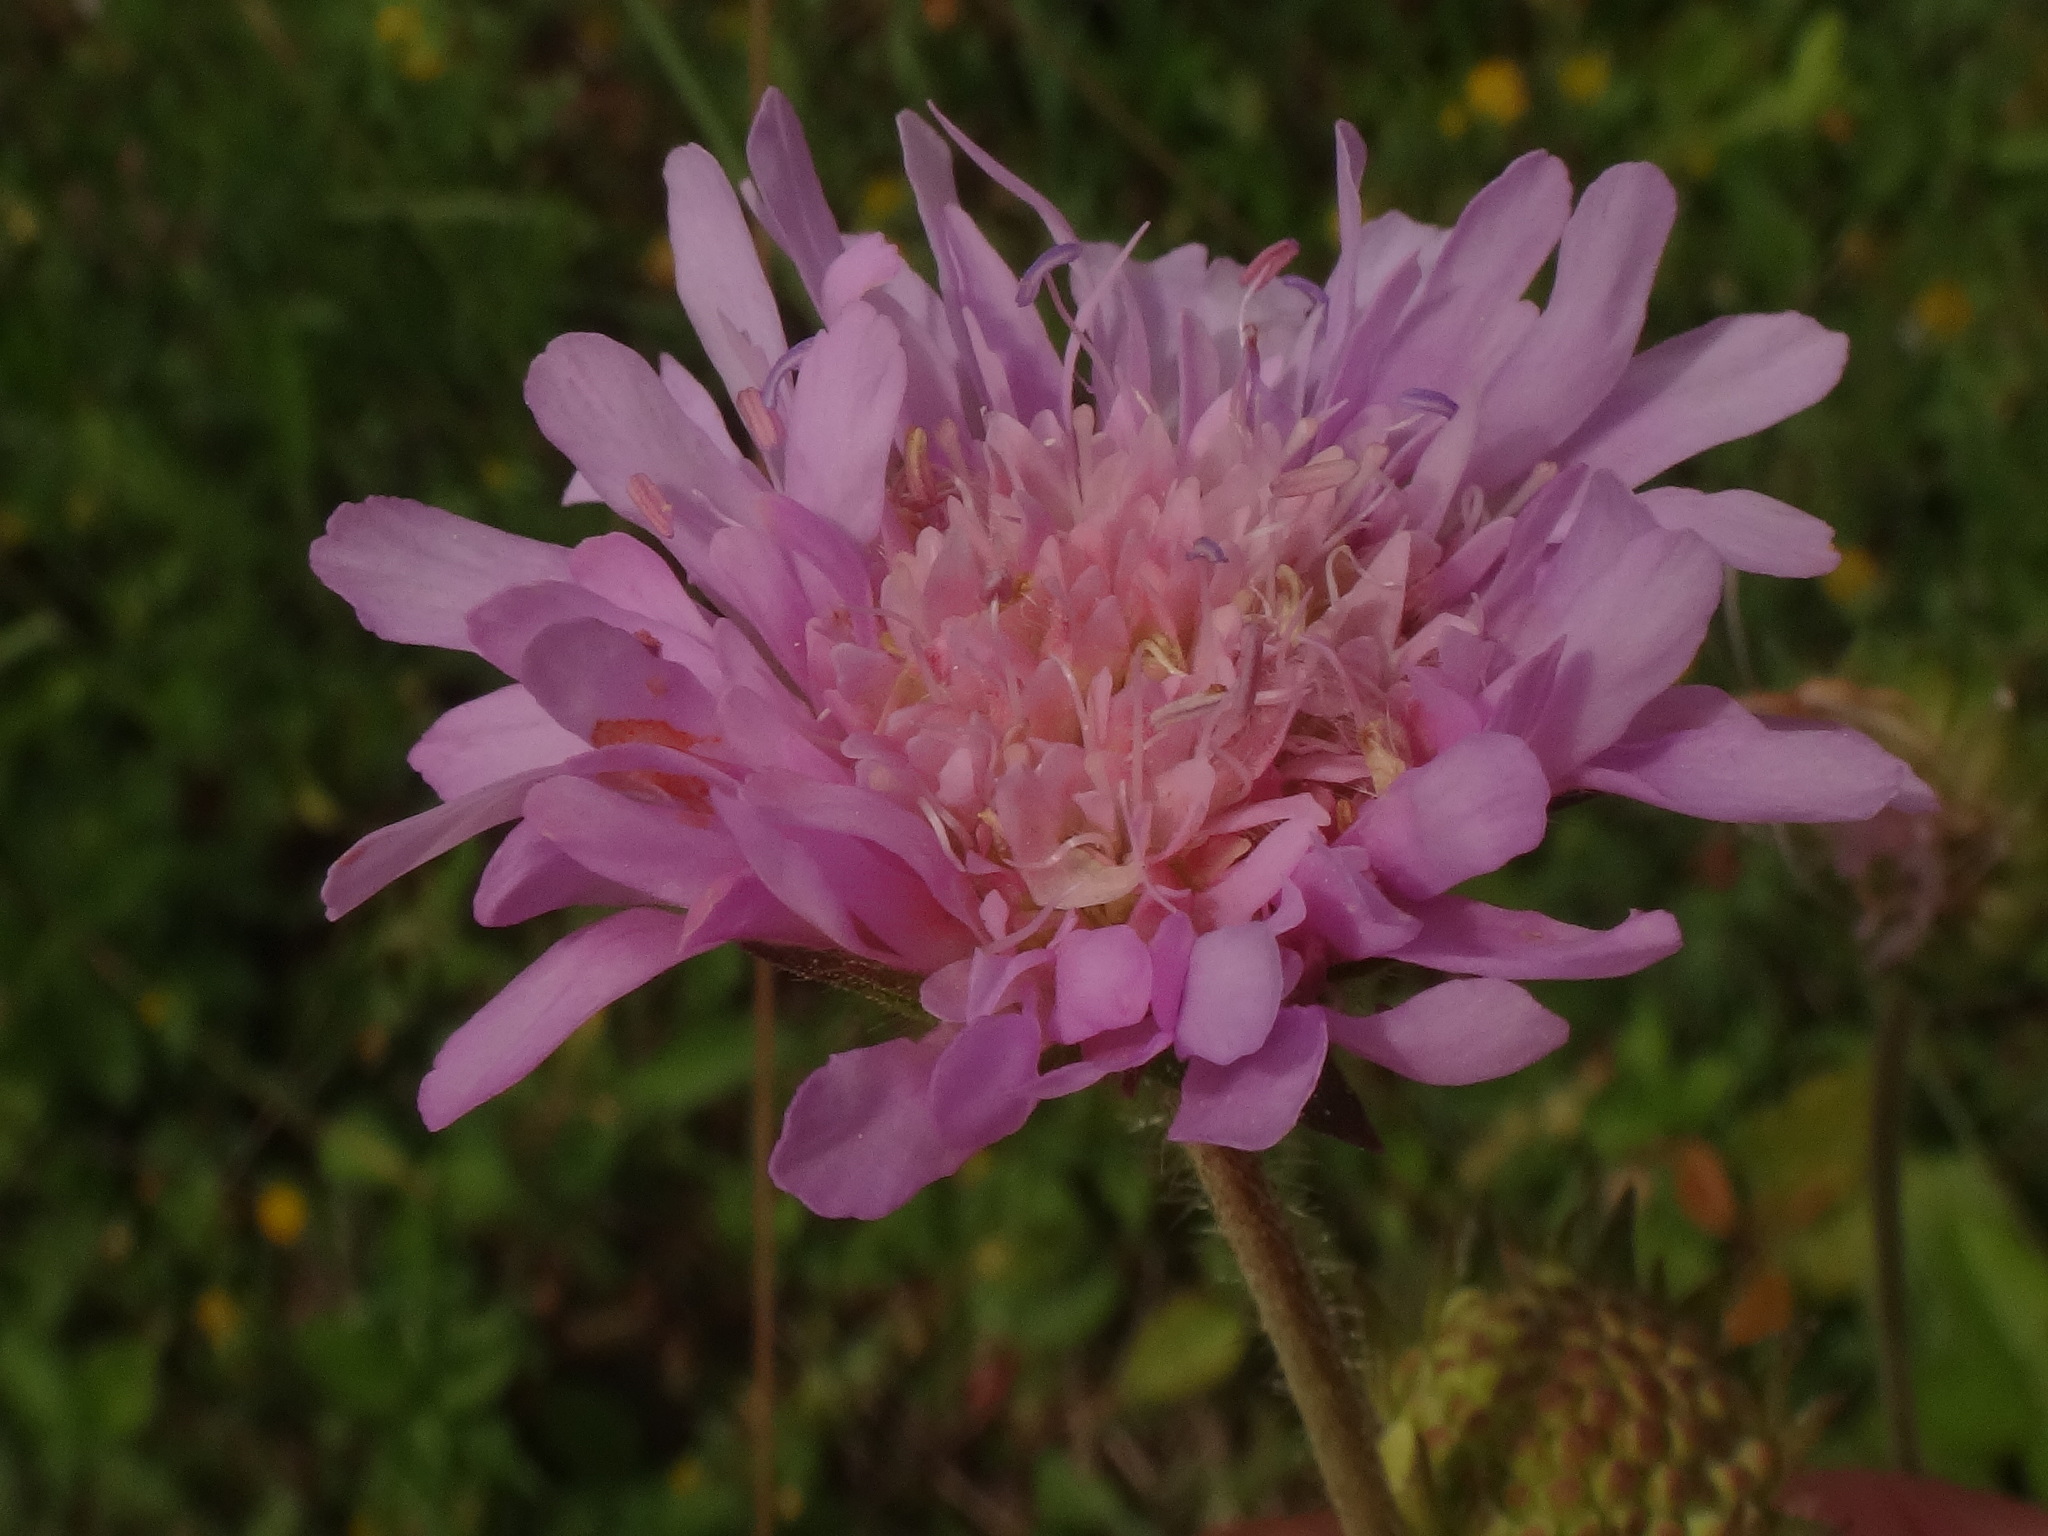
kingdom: Plantae
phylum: Tracheophyta
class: Magnoliopsida
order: Dipsacales
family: Caprifoliaceae
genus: Knautia
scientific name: Knautia arvensis
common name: Field scabiosa
